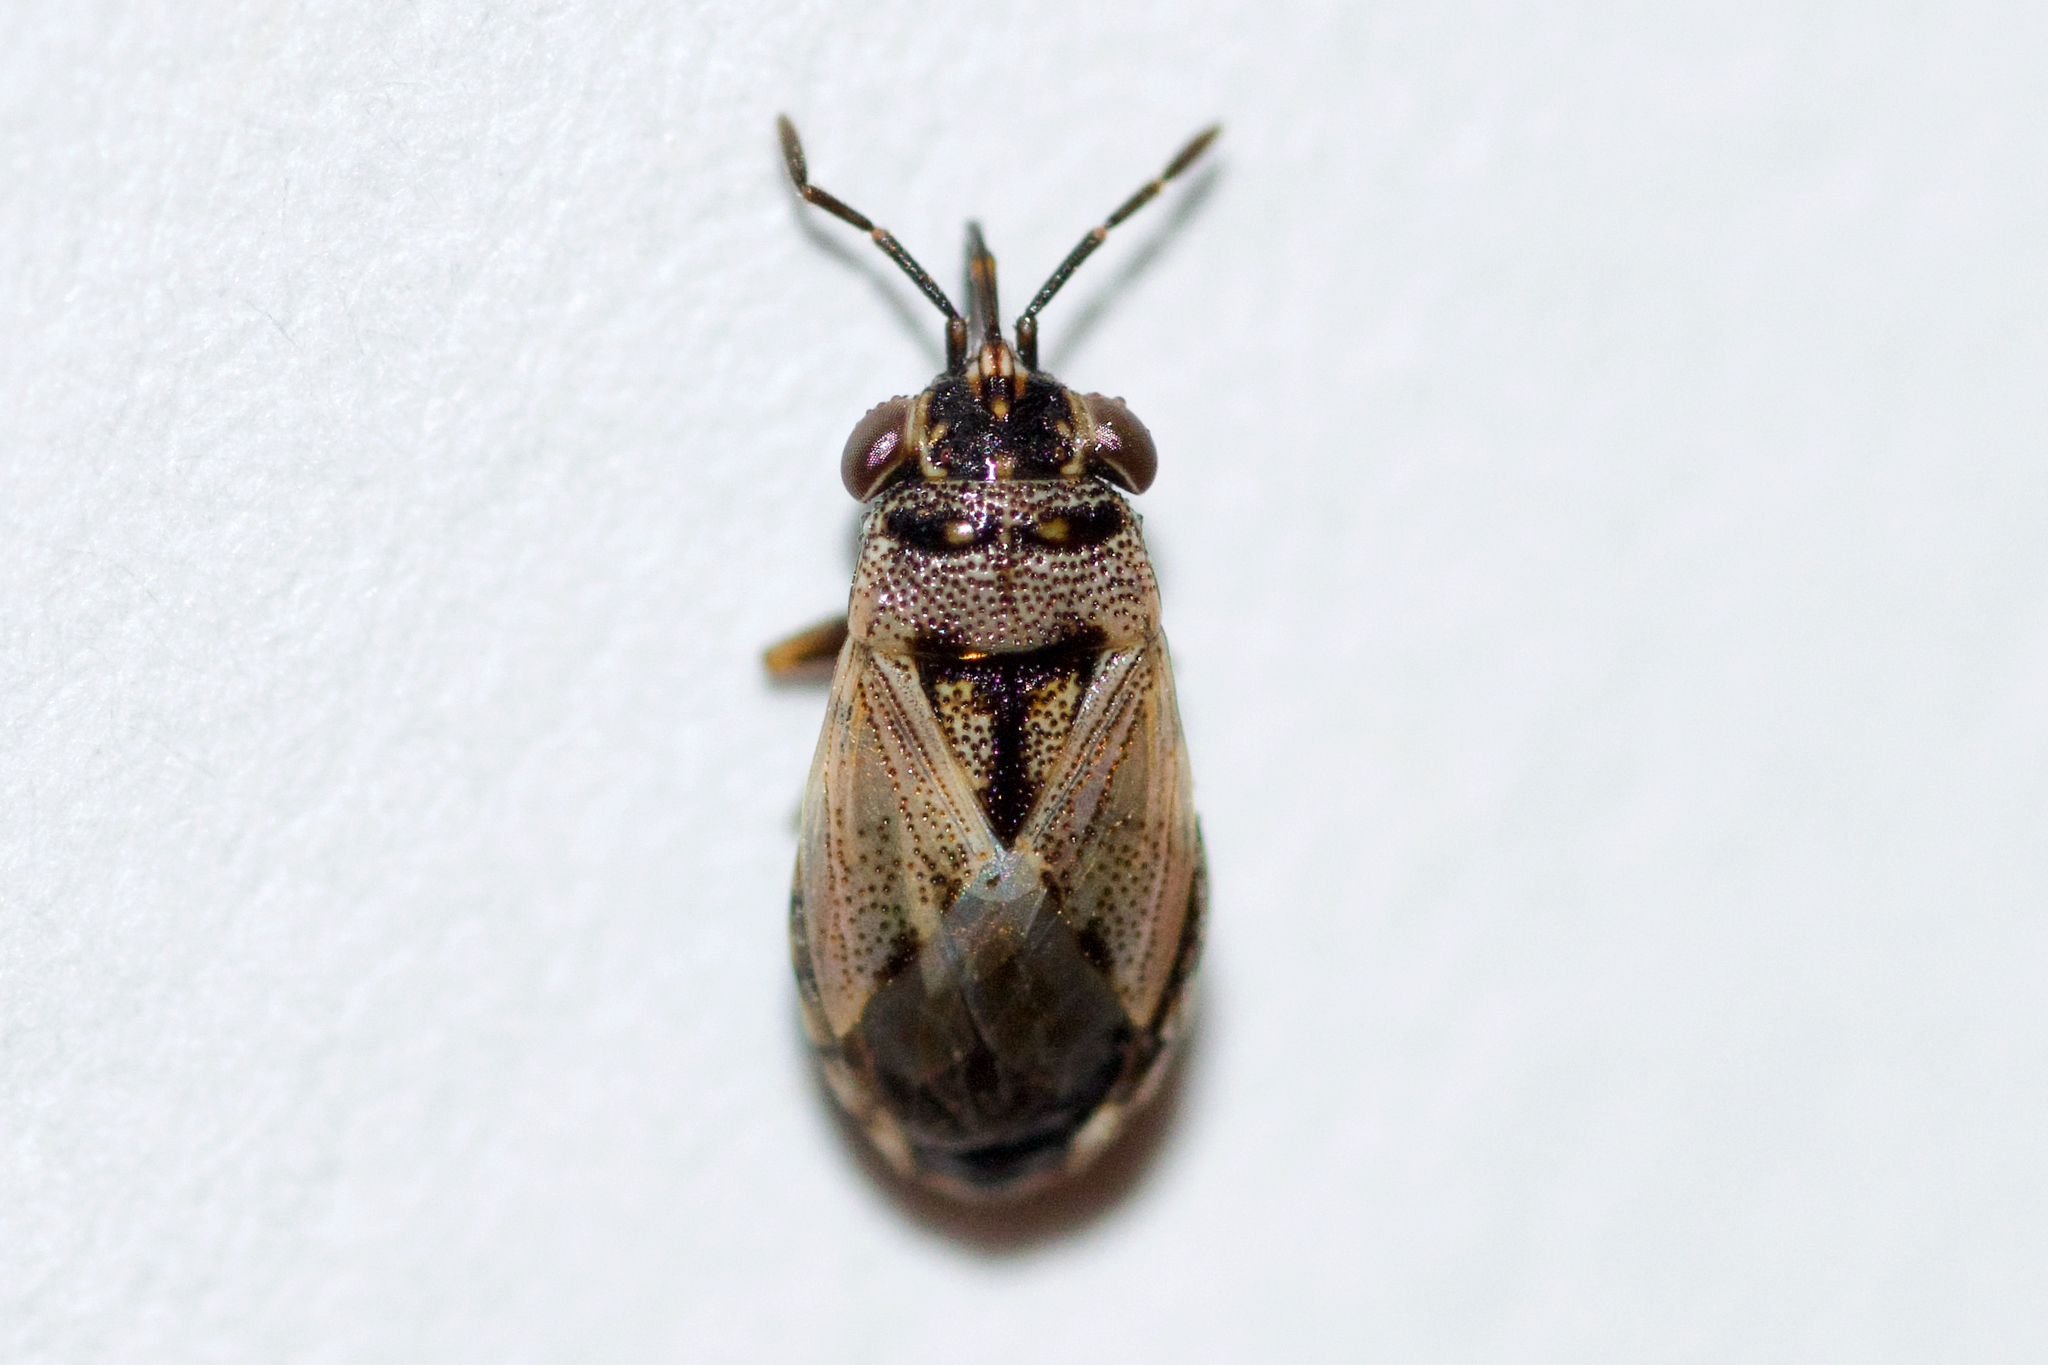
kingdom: Animalia
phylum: Arthropoda
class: Insecta
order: Hemiptera
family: Geocoridae
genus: Geocoris
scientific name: Geocoris bullatus
